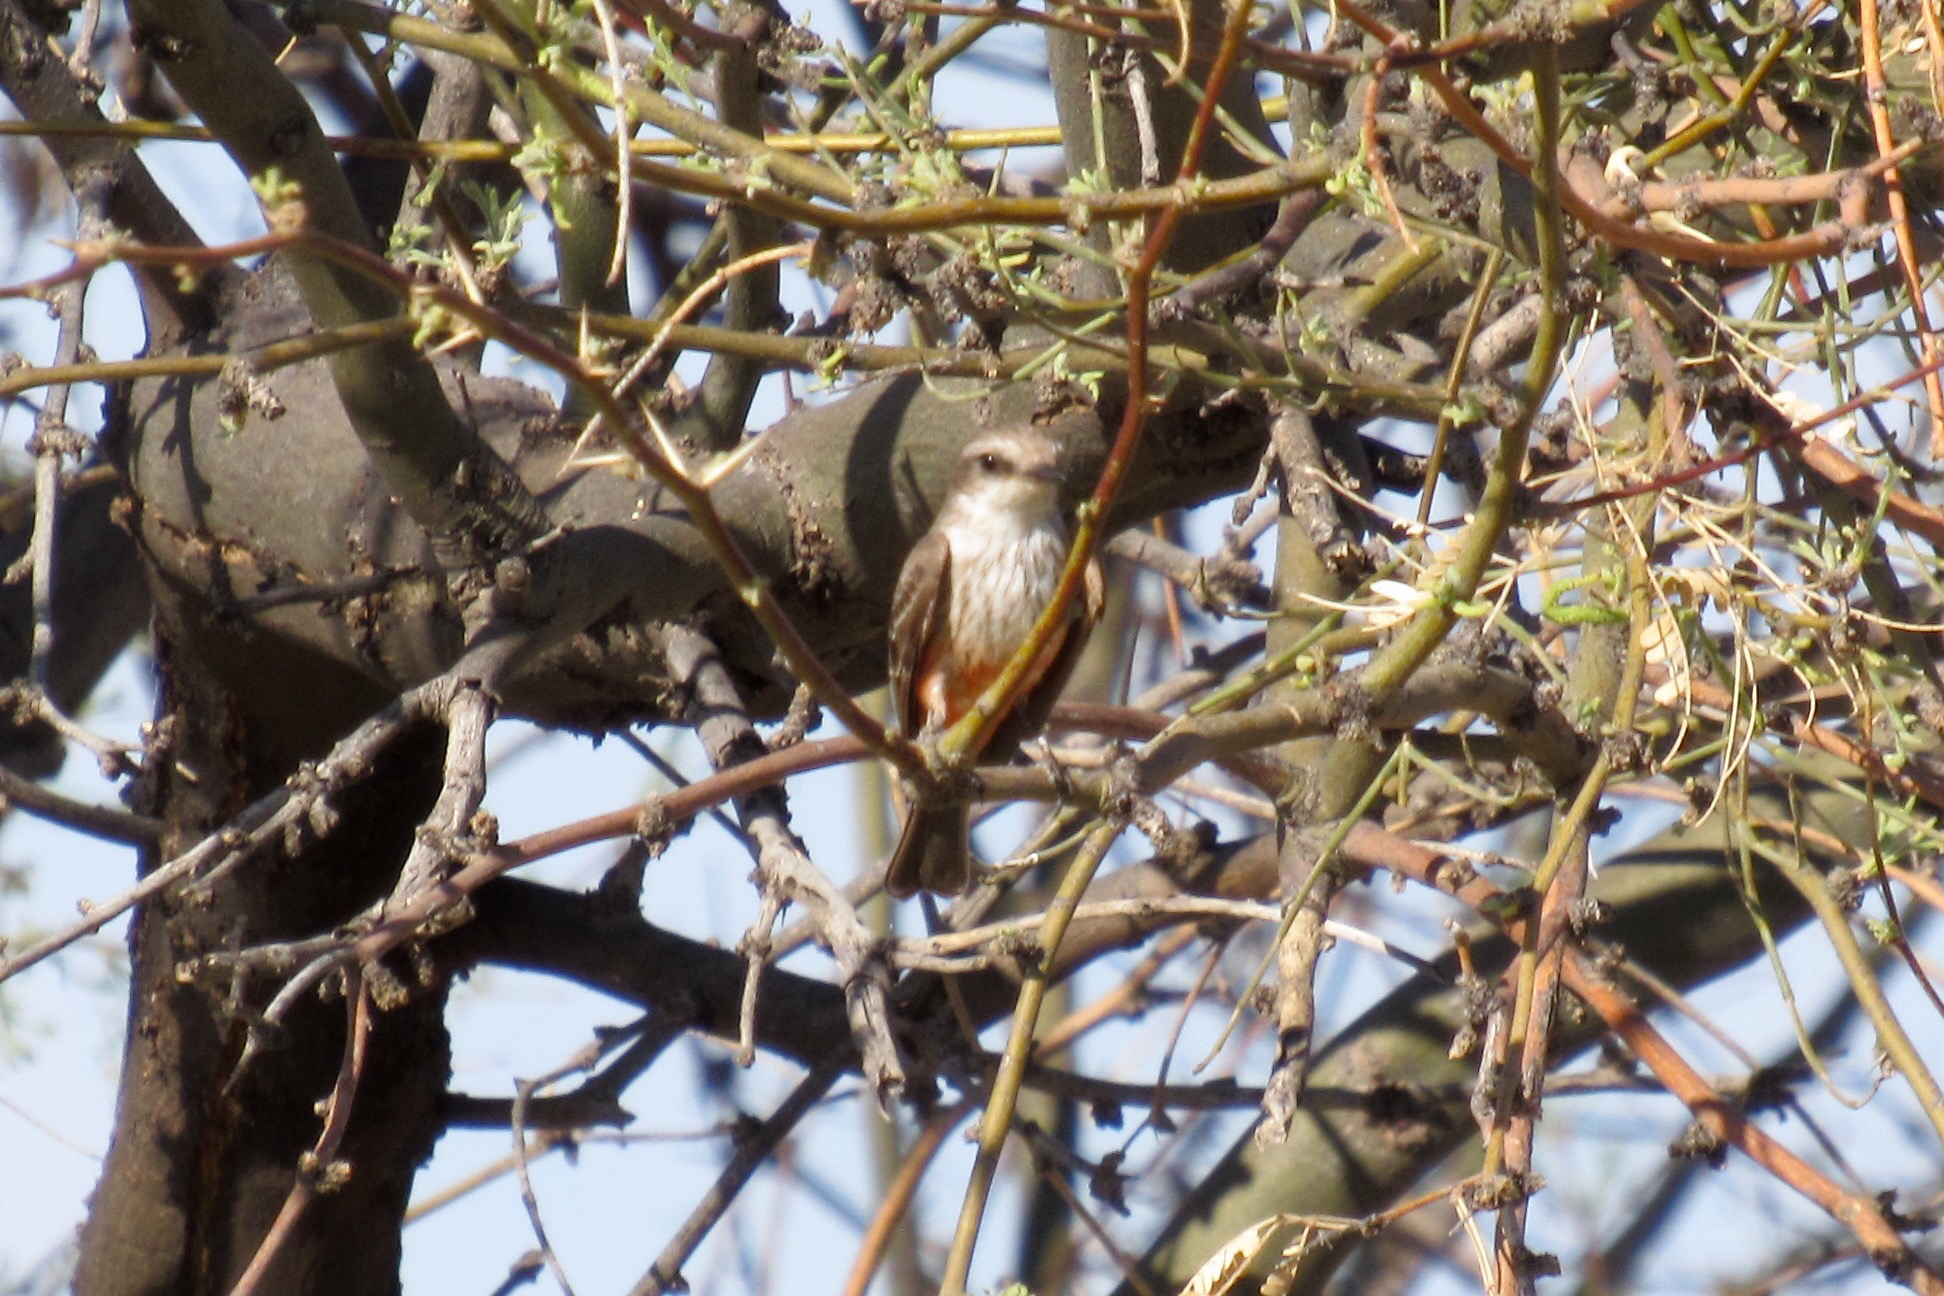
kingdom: Animalia
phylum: Chordata
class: Aves
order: Passeriformes
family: Tyrannidae
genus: Pyrocephalus
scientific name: Pyrocephalus rubinus
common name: Vermilion flycatcher
